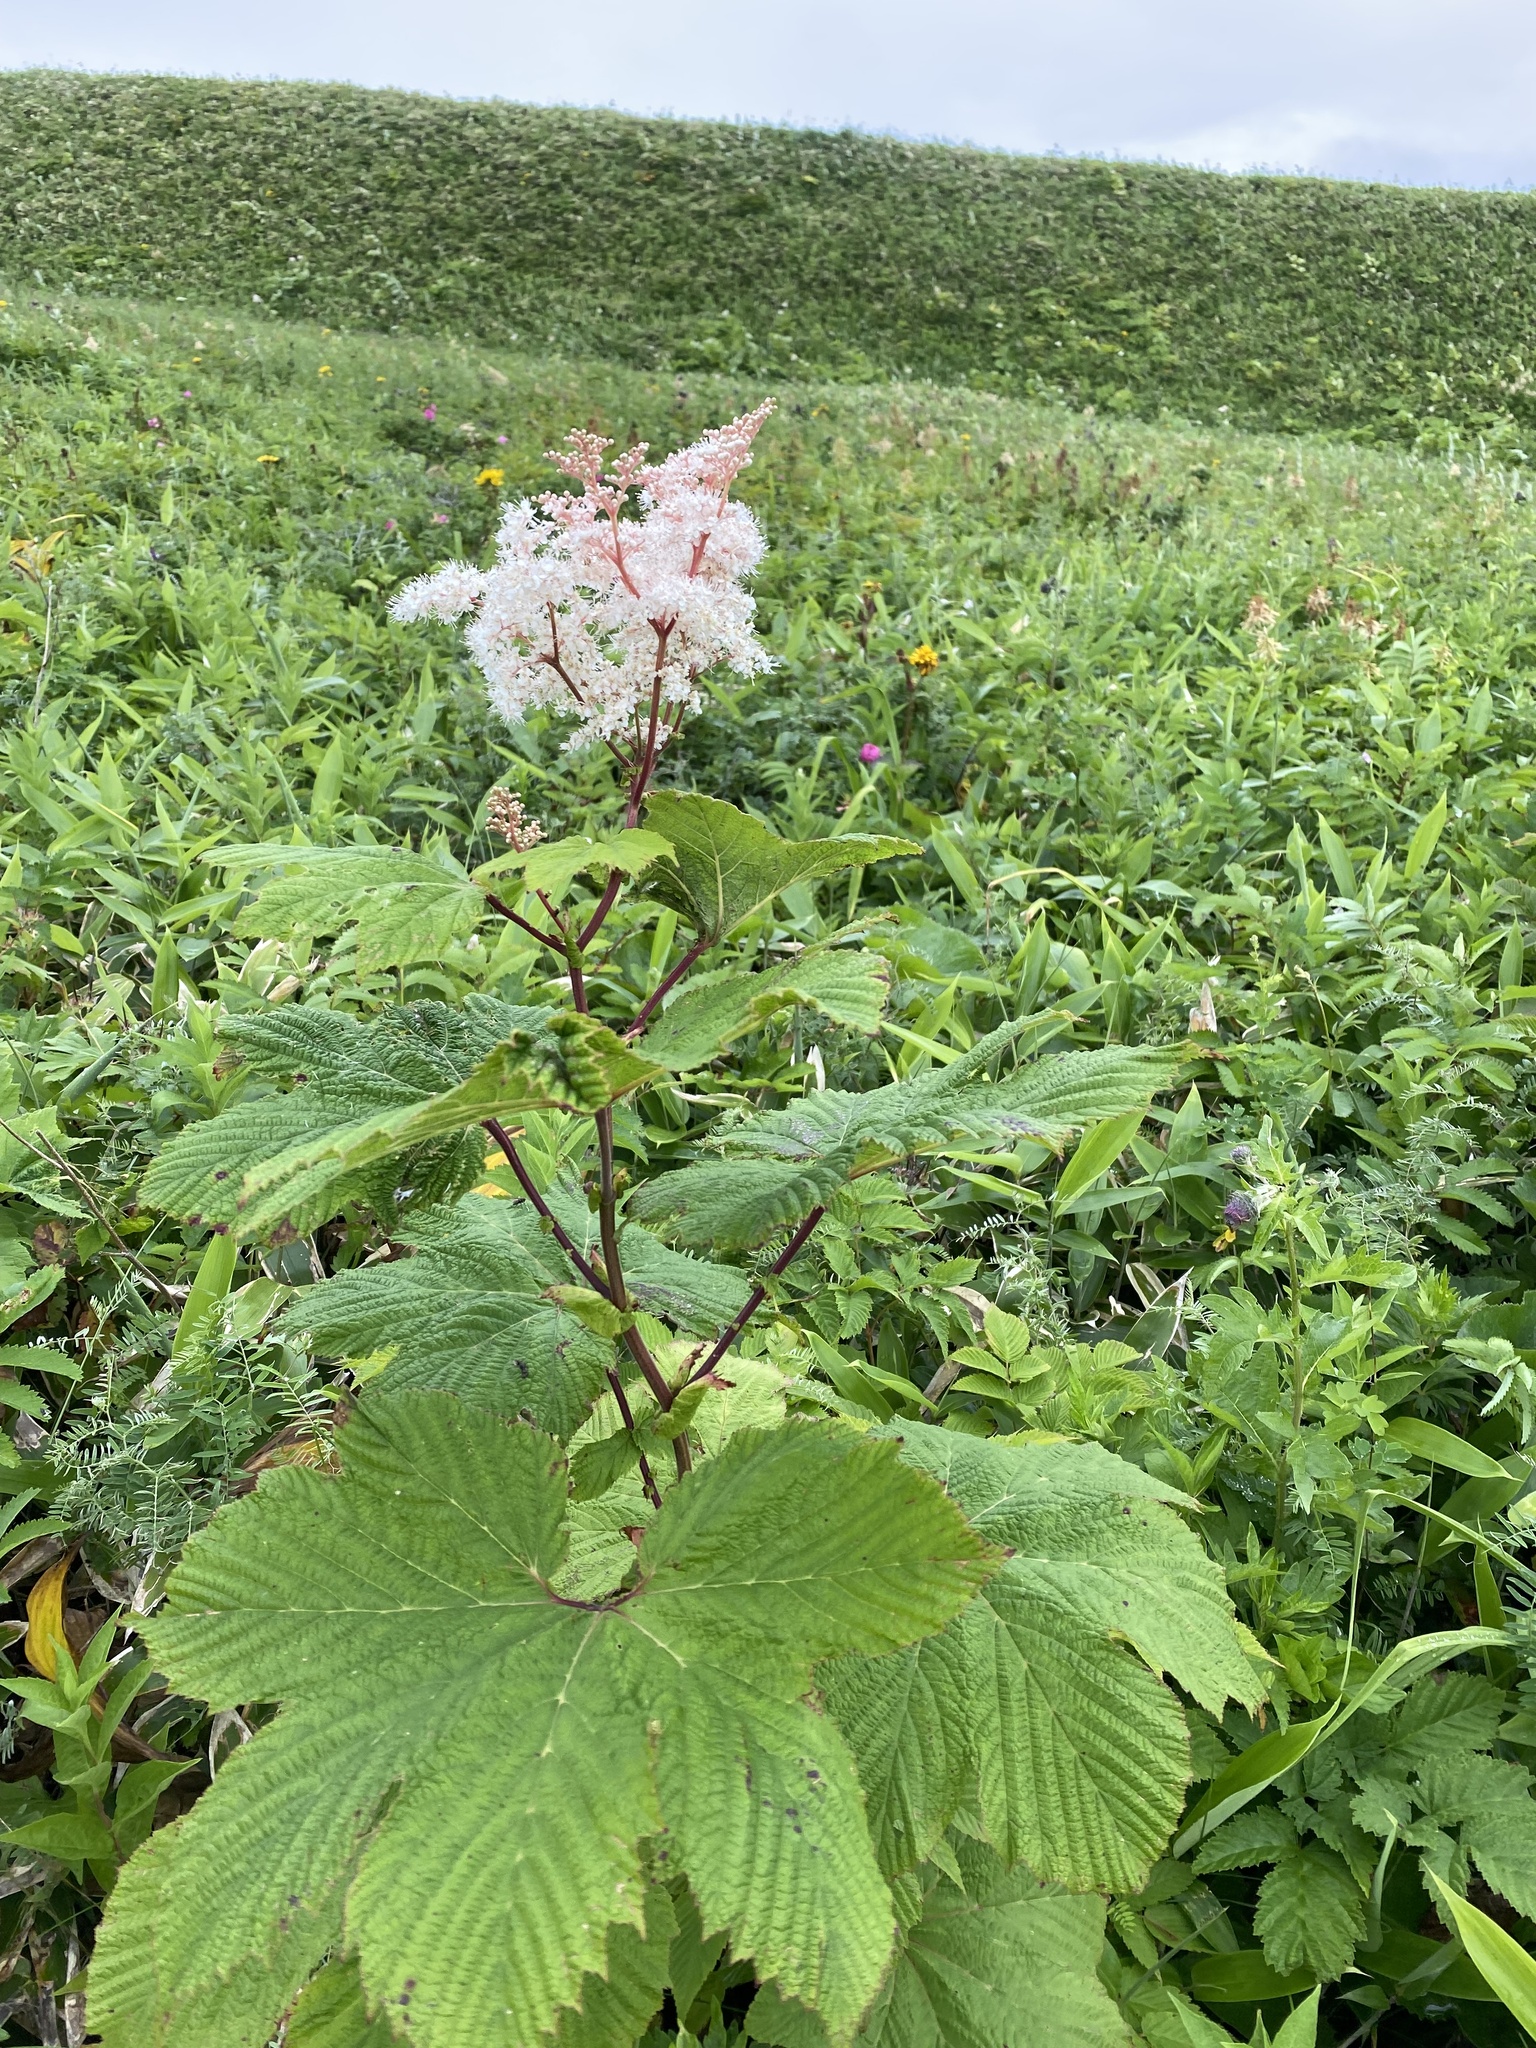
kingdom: Plantae
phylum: Tracheophyta
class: Magnoliopsida
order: Rosales
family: Rosaceae
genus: Filipendula
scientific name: Filipendula camtschatica
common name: Giant meadowsweet
